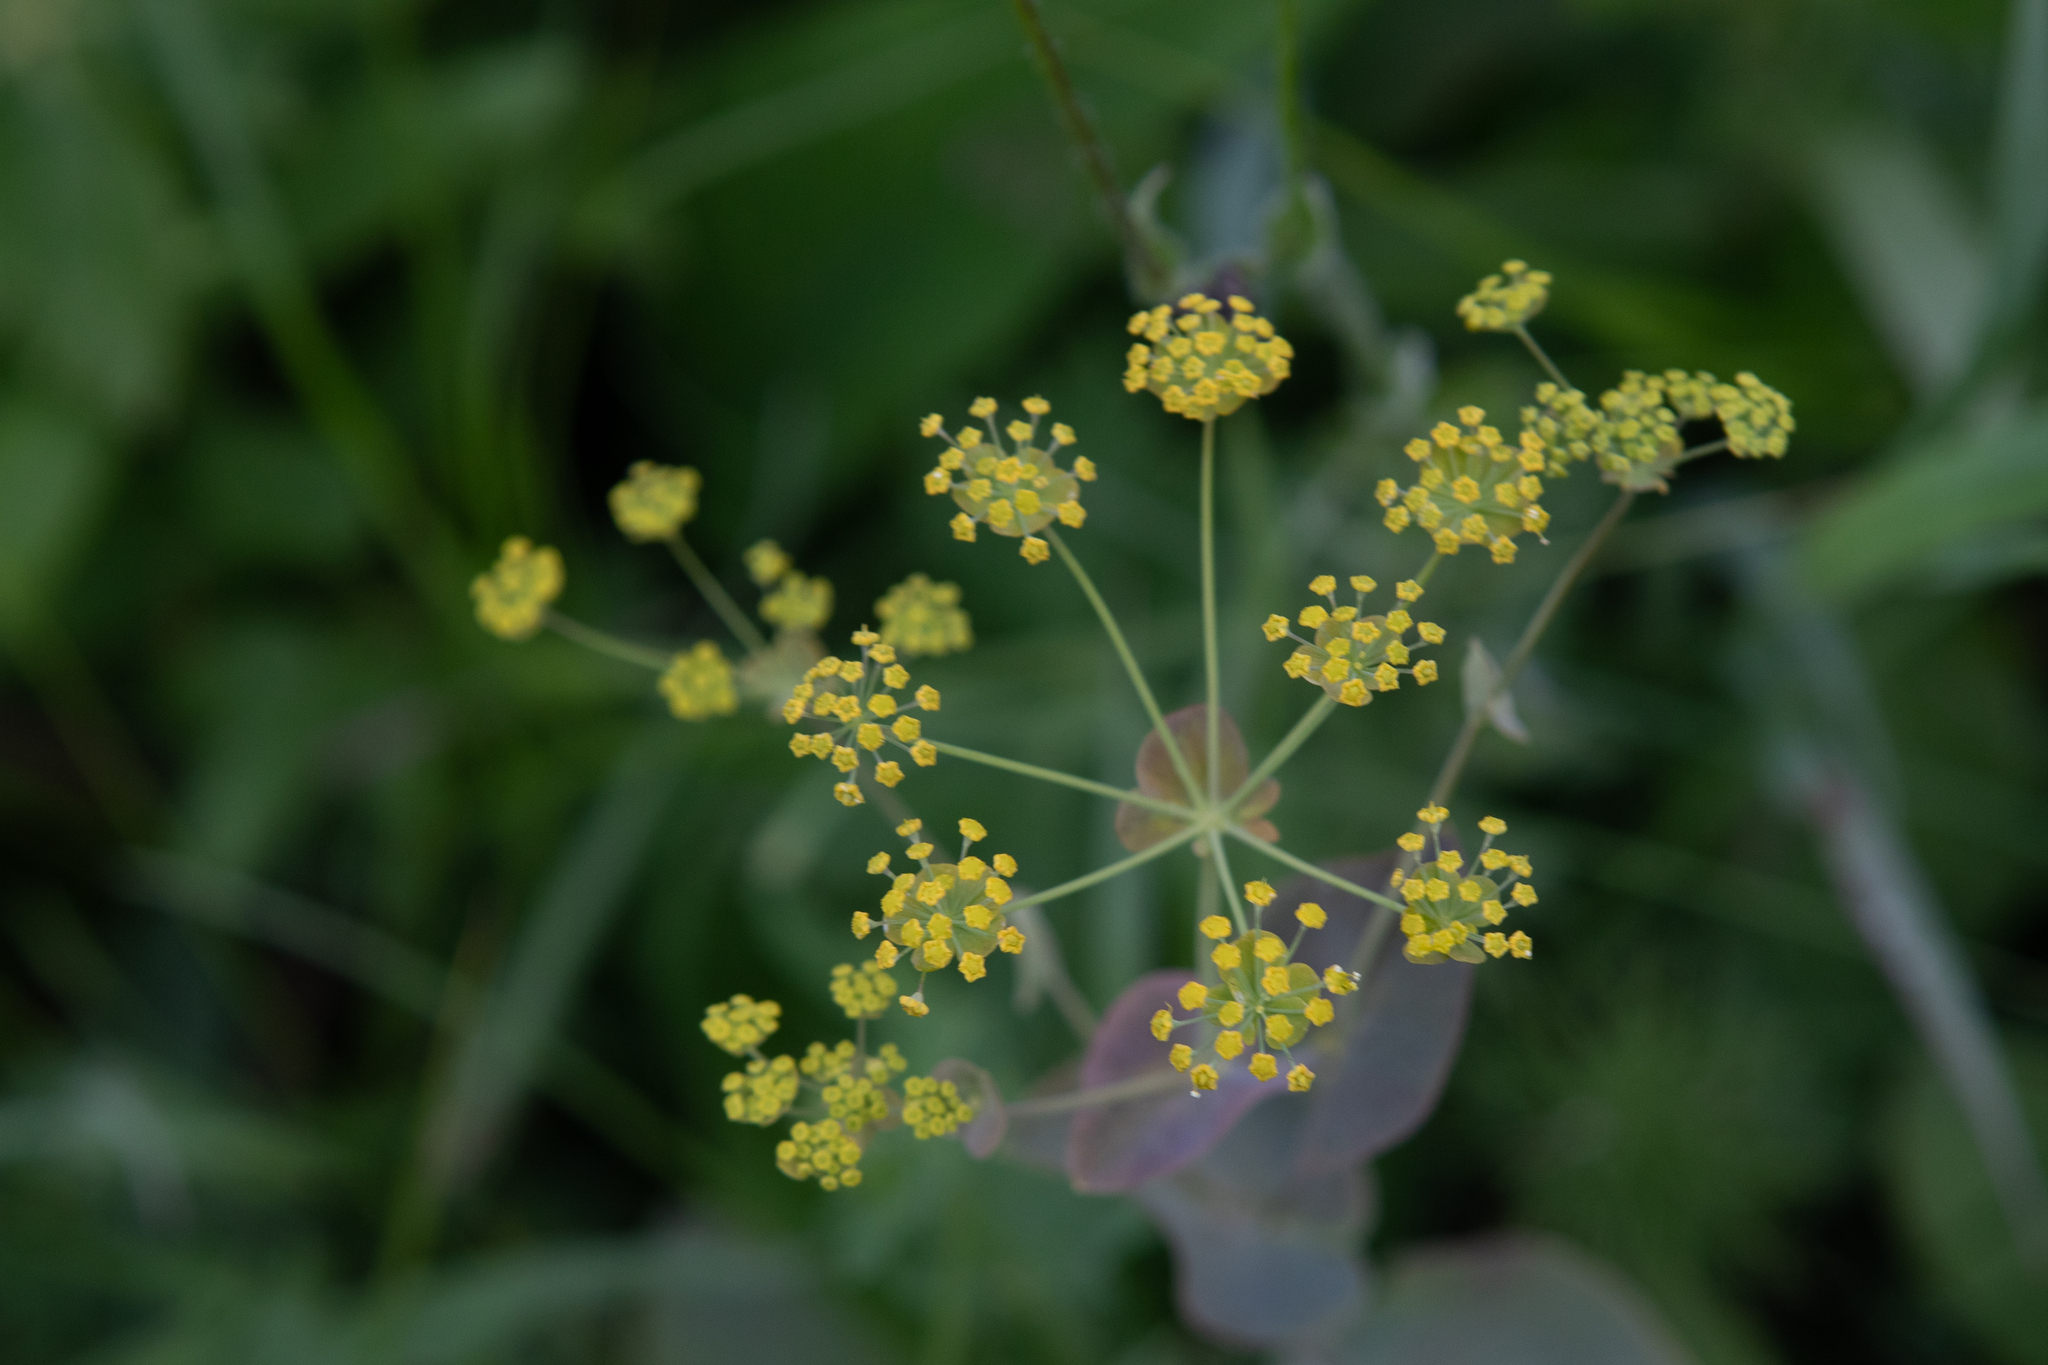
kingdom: Plantae
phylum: Tracheophyta
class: Magnoliopsida
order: Apiales
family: Apiaceae
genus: Bupleurum
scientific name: Bupleurum aureum
